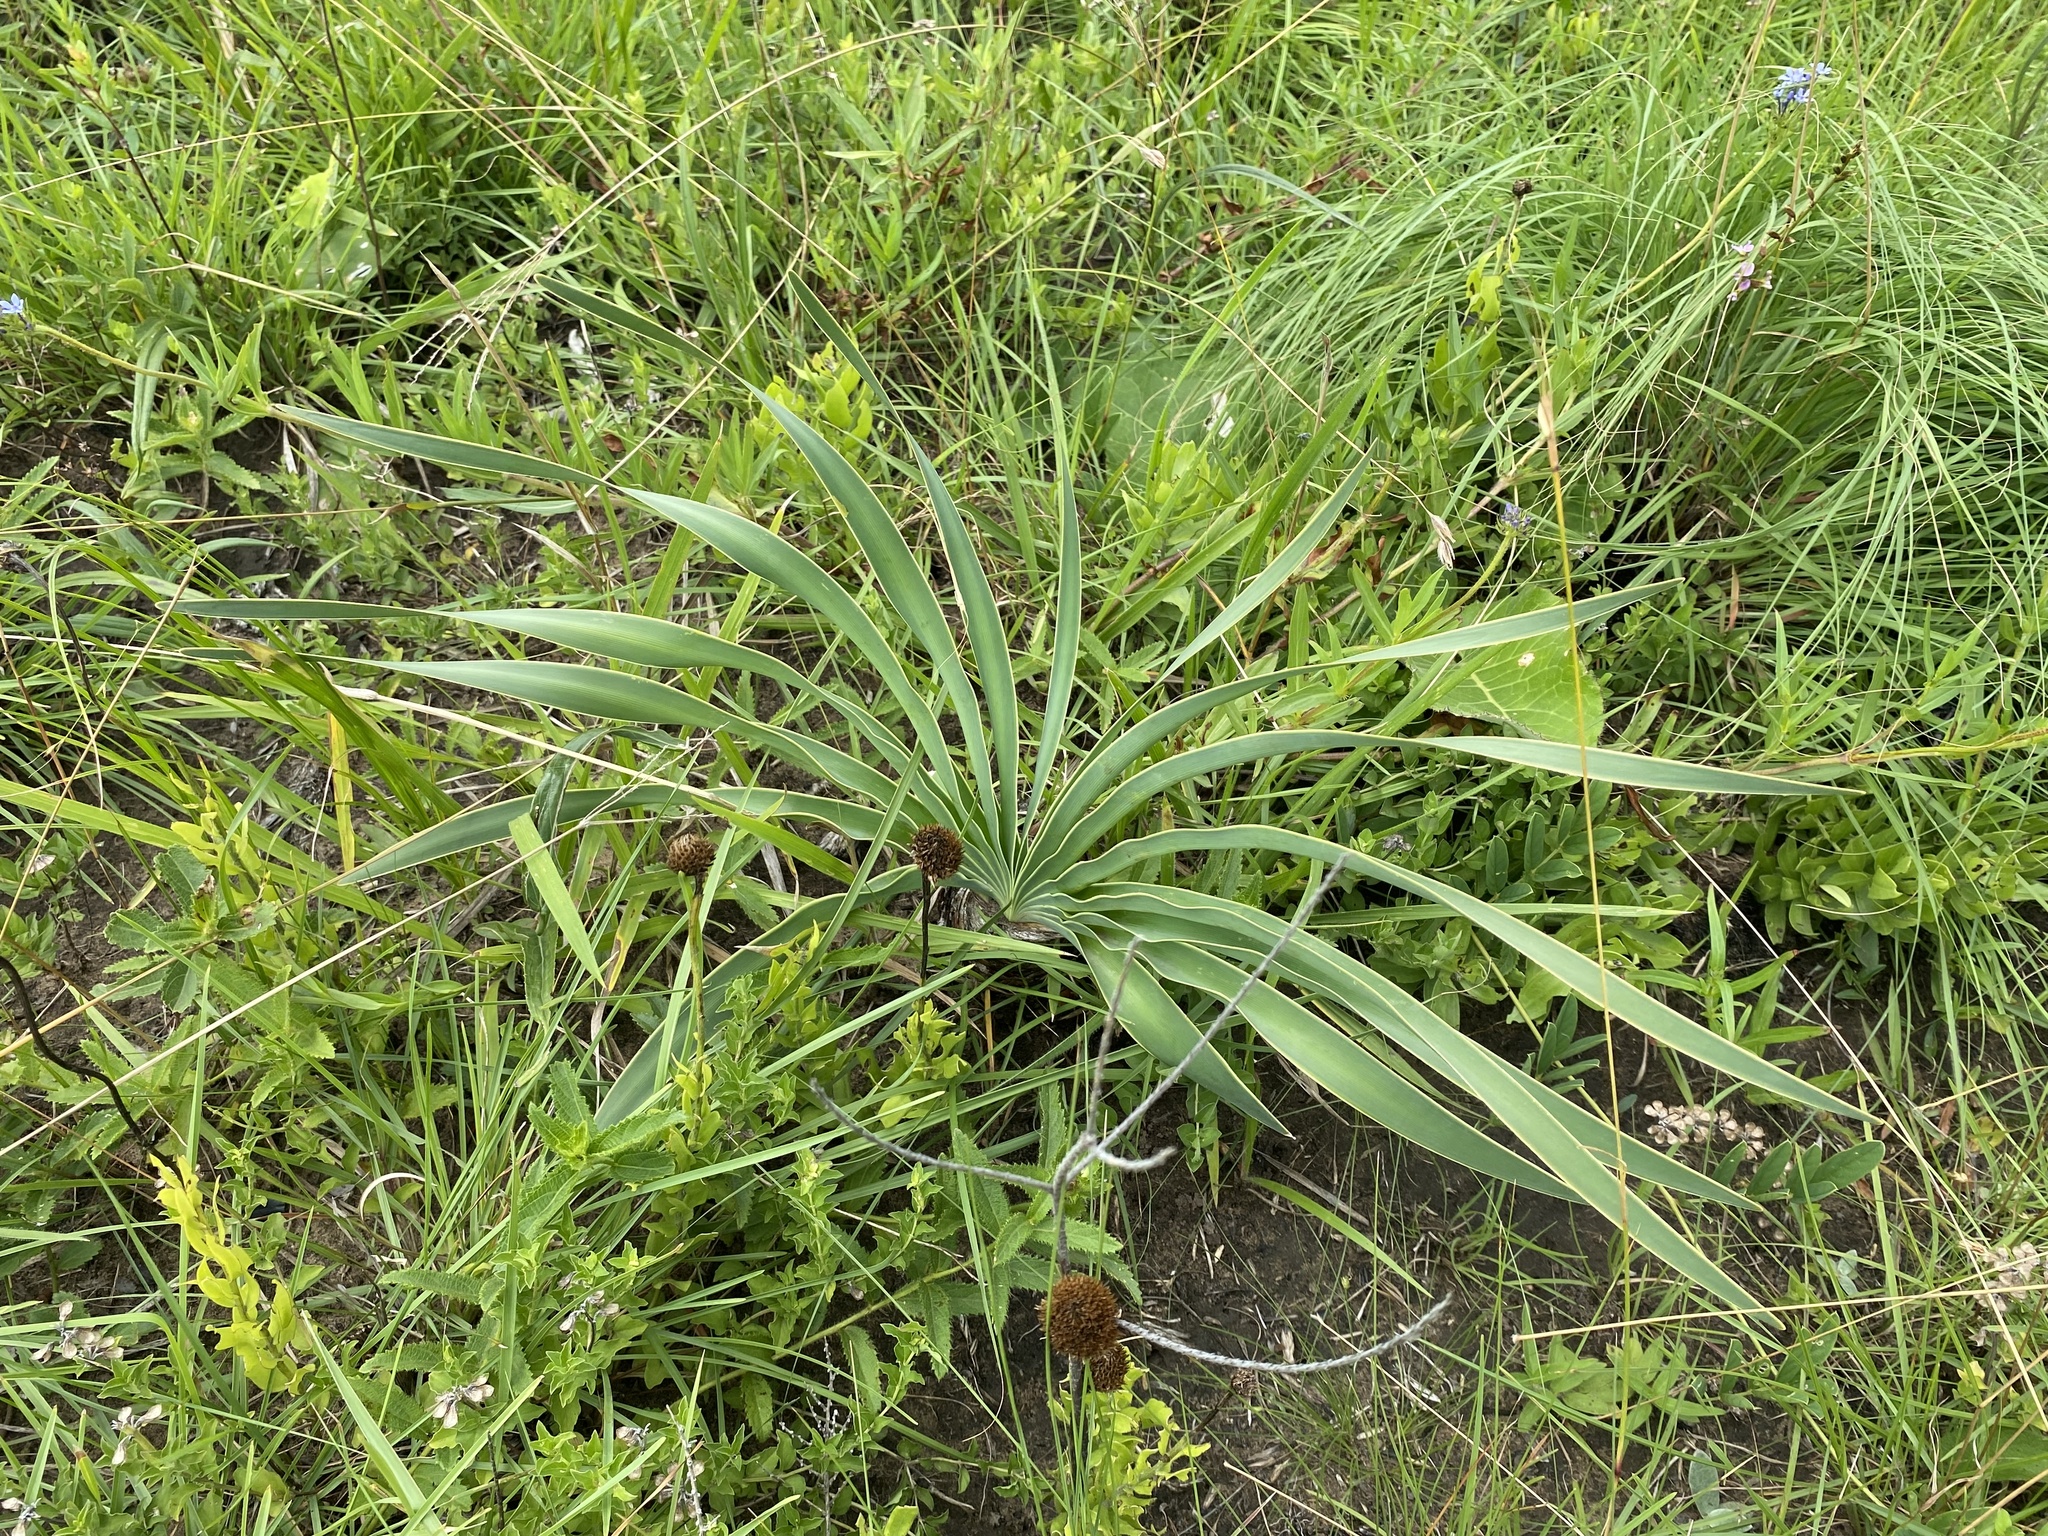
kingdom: Plantae
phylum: Tracheophyta
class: Liliopsida
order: Asparagales
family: Amaryllidaceae
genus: Boophone
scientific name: Boophone disticha
